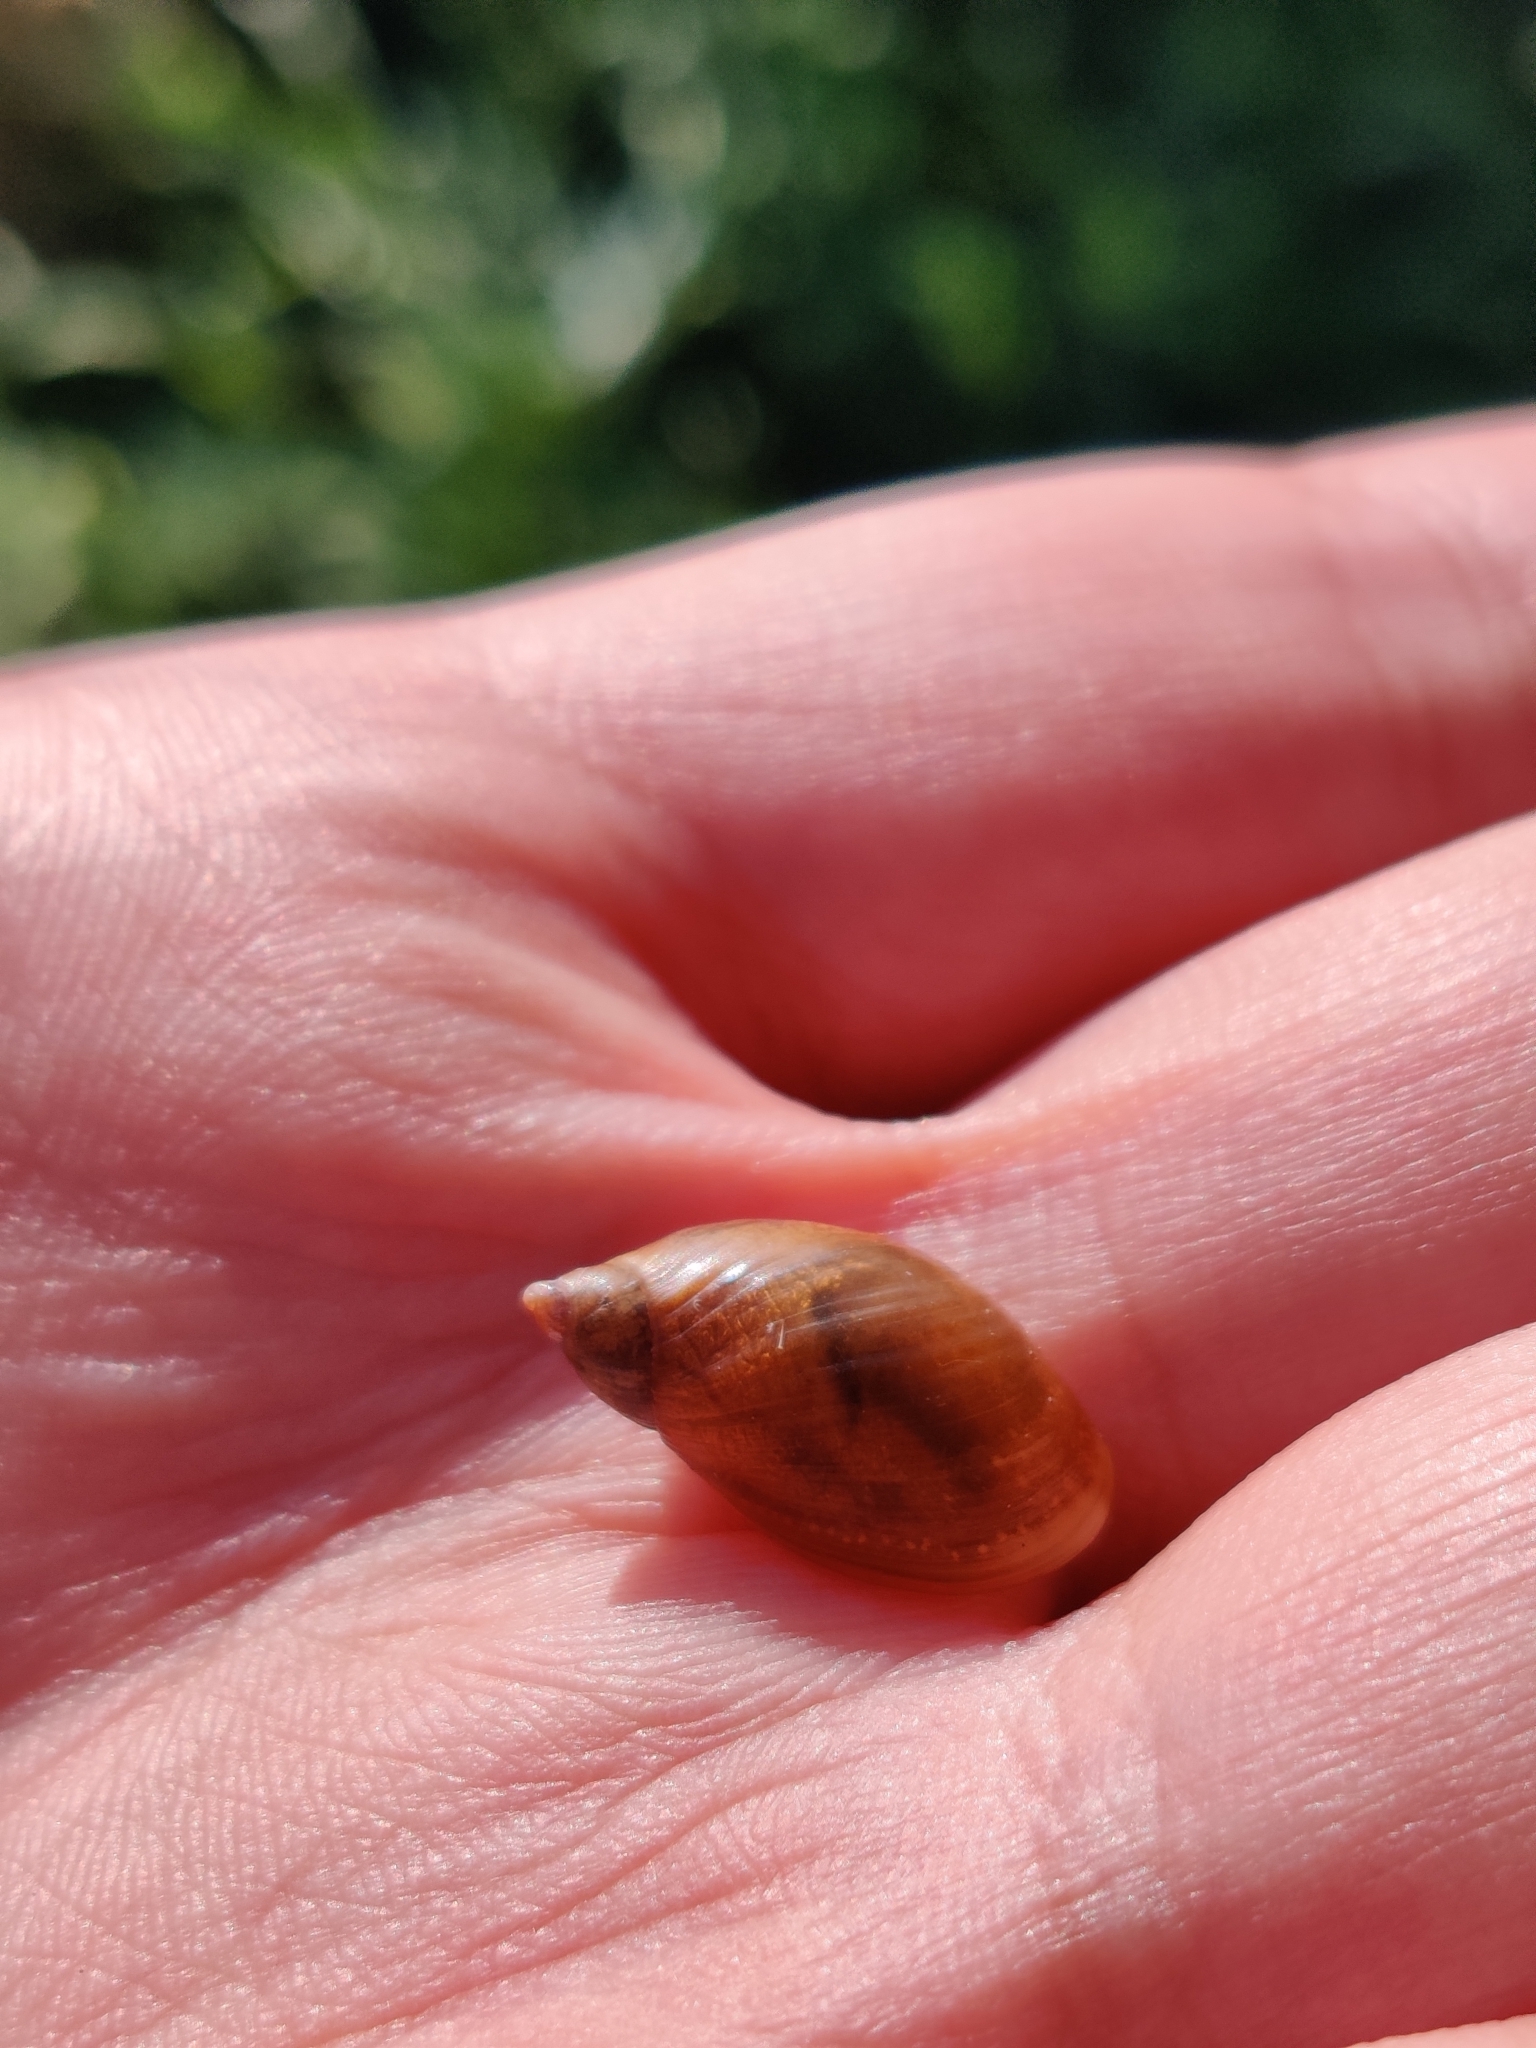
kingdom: Animalia
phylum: Mollusca
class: Gastropoda
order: Stylommatophora
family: Succineidae
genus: Succinea
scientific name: Succinea putris
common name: European ambersnail
